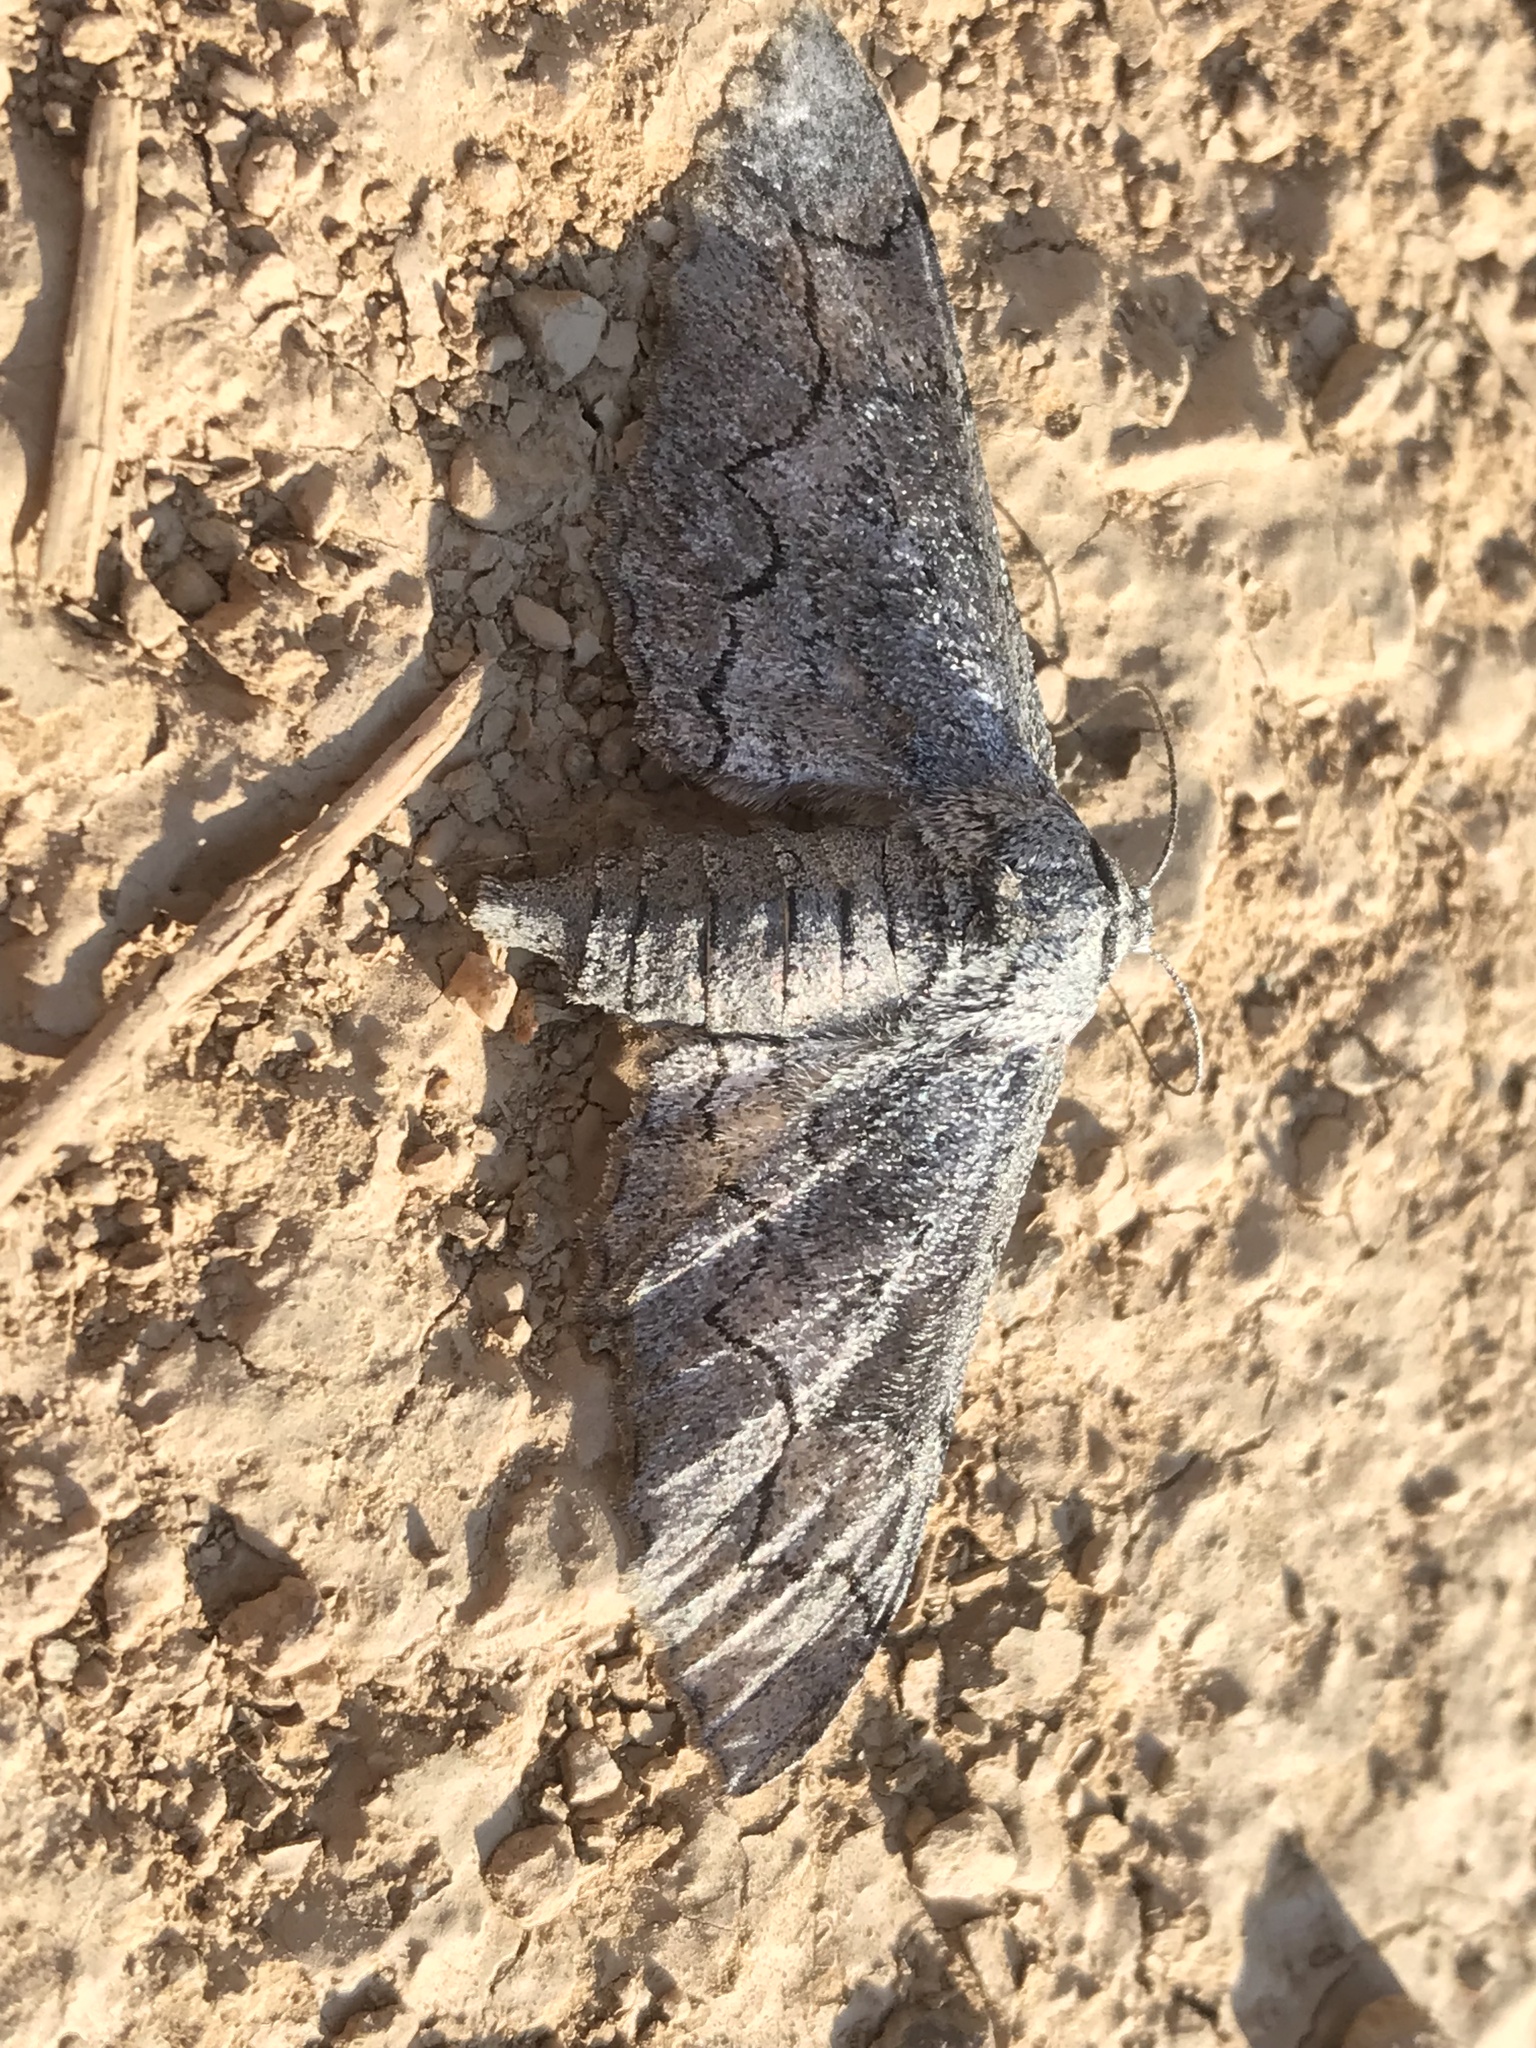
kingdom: Animalia
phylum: Arthropoda
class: Insecta
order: Lepidoptera
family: Geometridae
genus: Biston
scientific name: Biston sinuata
